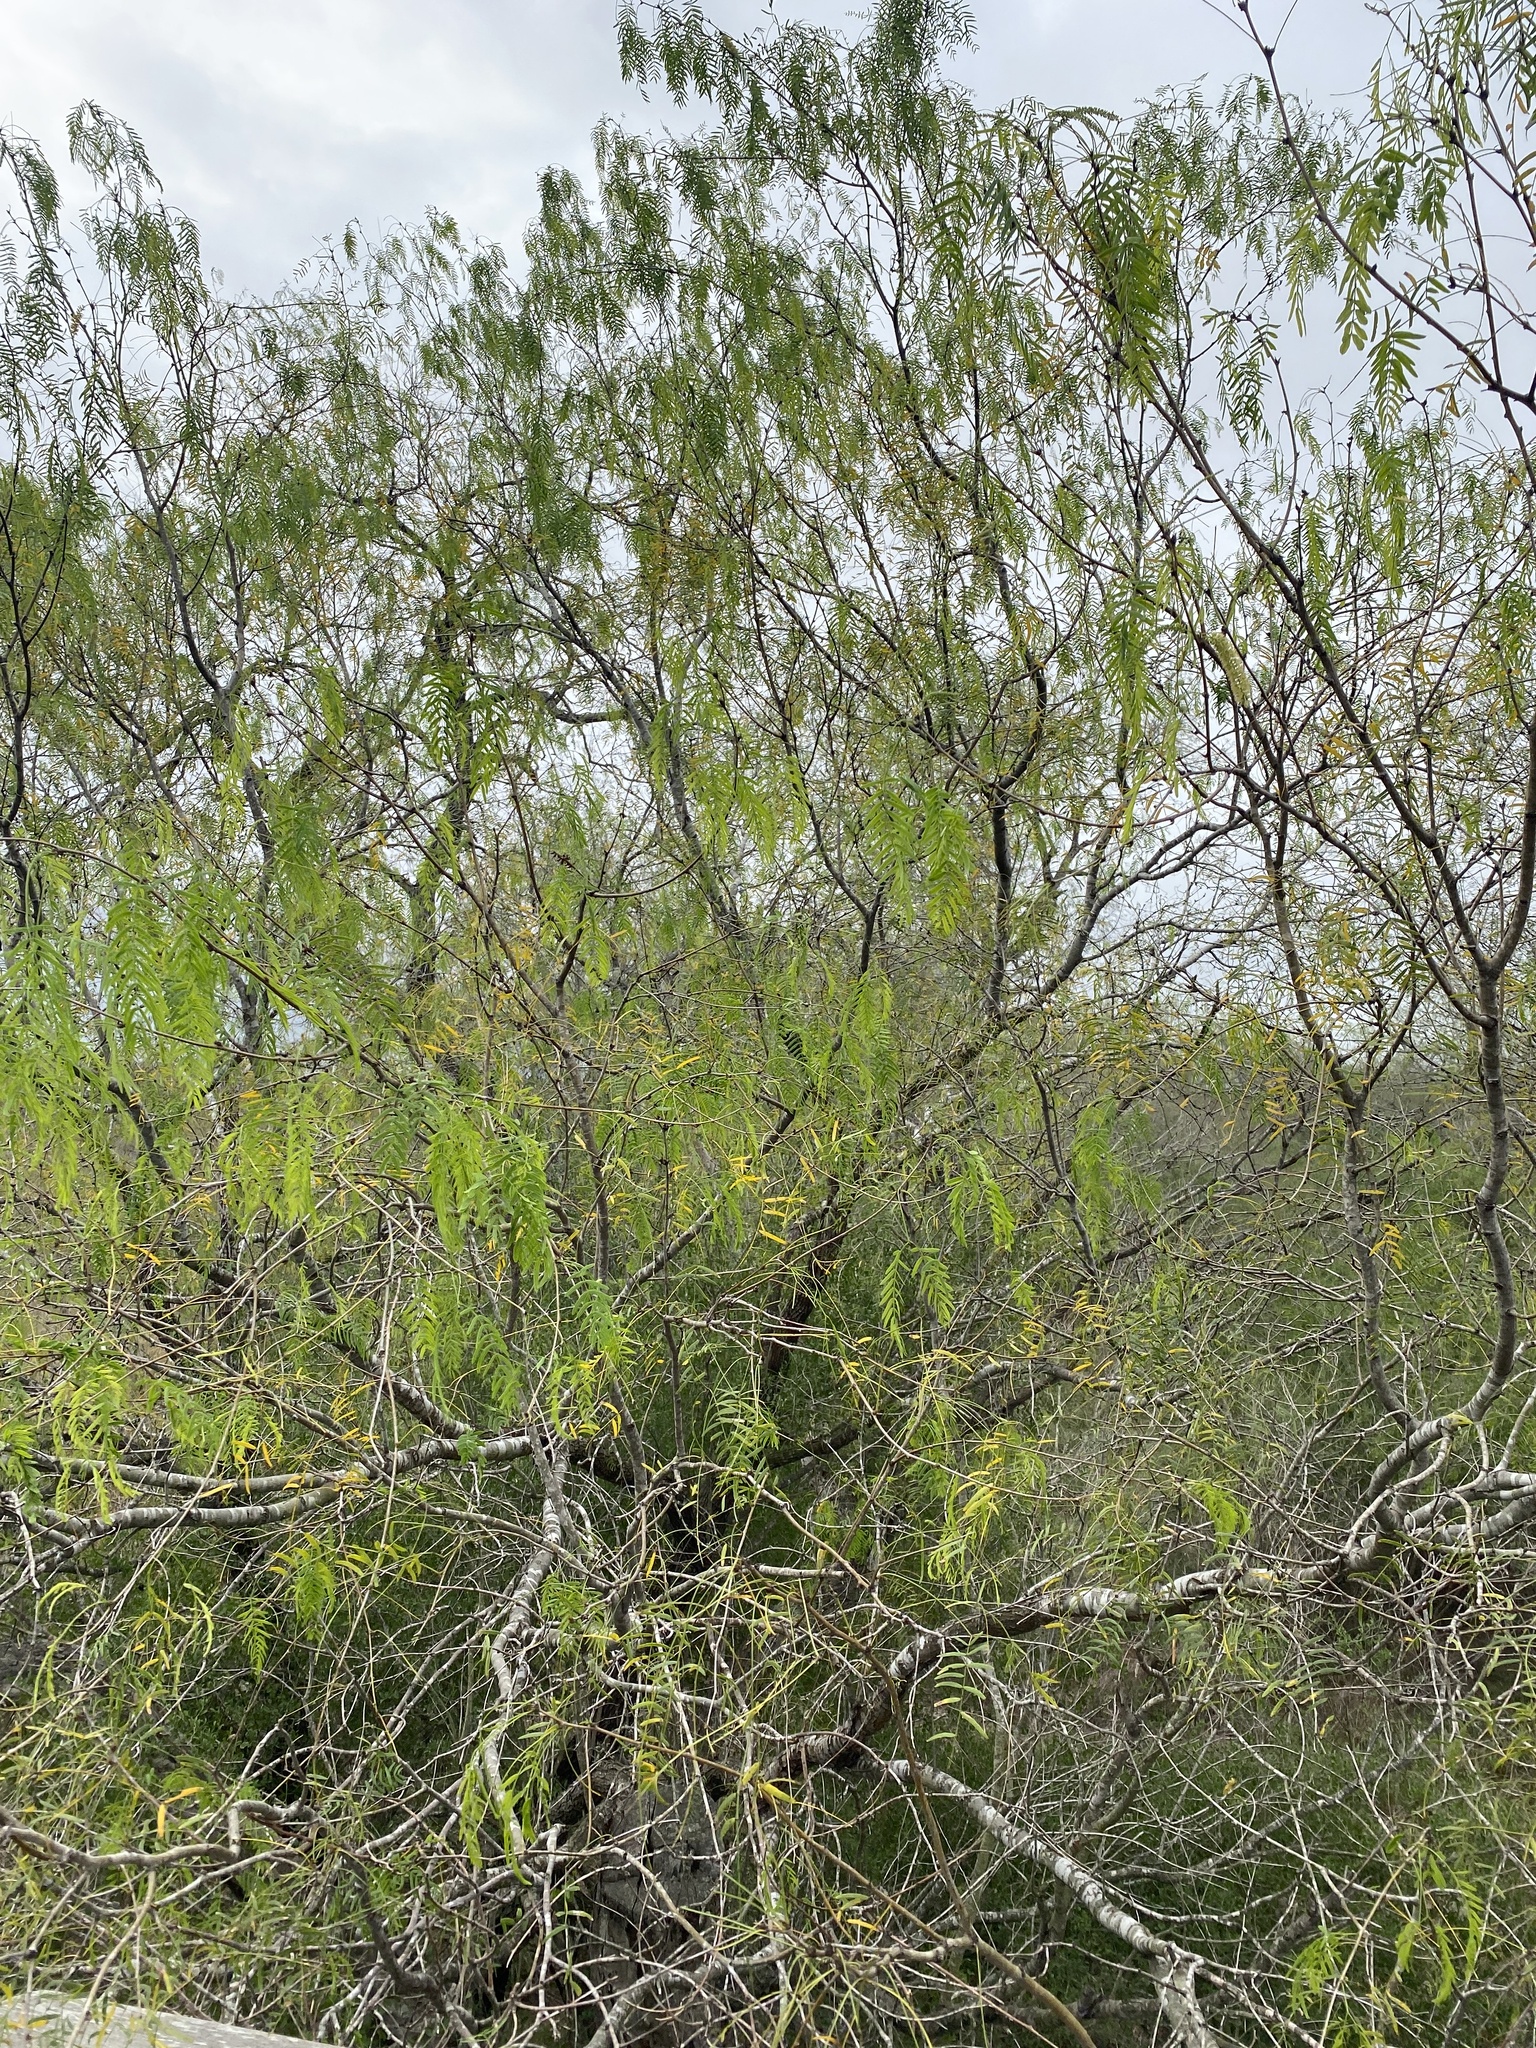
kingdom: Plantae
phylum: Tracheophyta
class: Magnoliopsida
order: Fabales
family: Fabaceae
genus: Prosopis
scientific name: Prosopis glandulosa
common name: Honey mesquite
